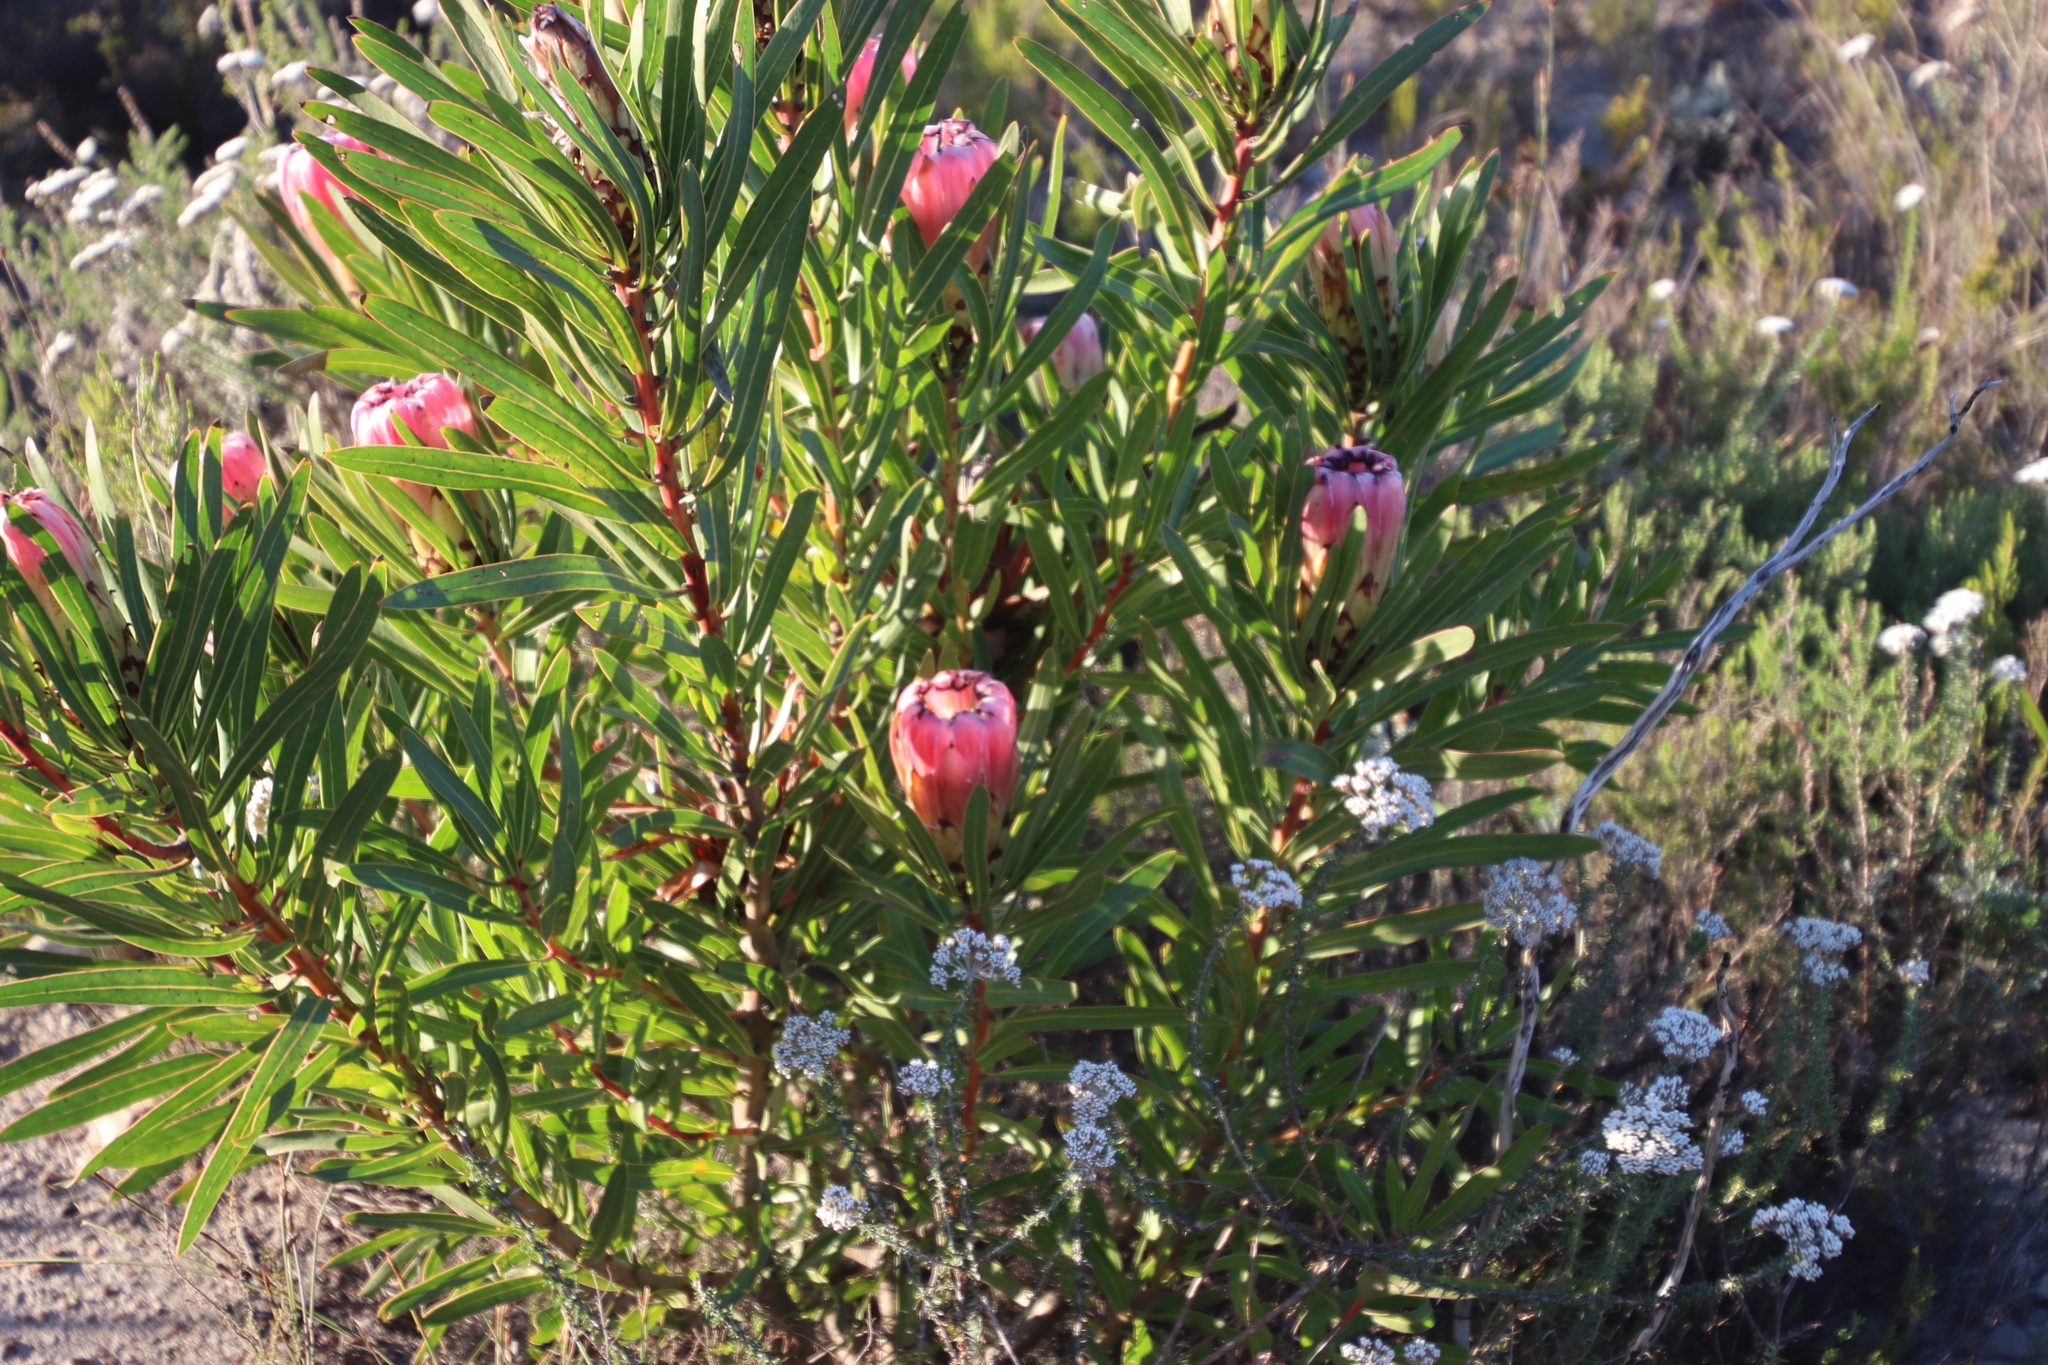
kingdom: Plantae
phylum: Tracheophyta
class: Magnoliopsida
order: Proteales
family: Proteaceae
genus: Protea
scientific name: Protea
